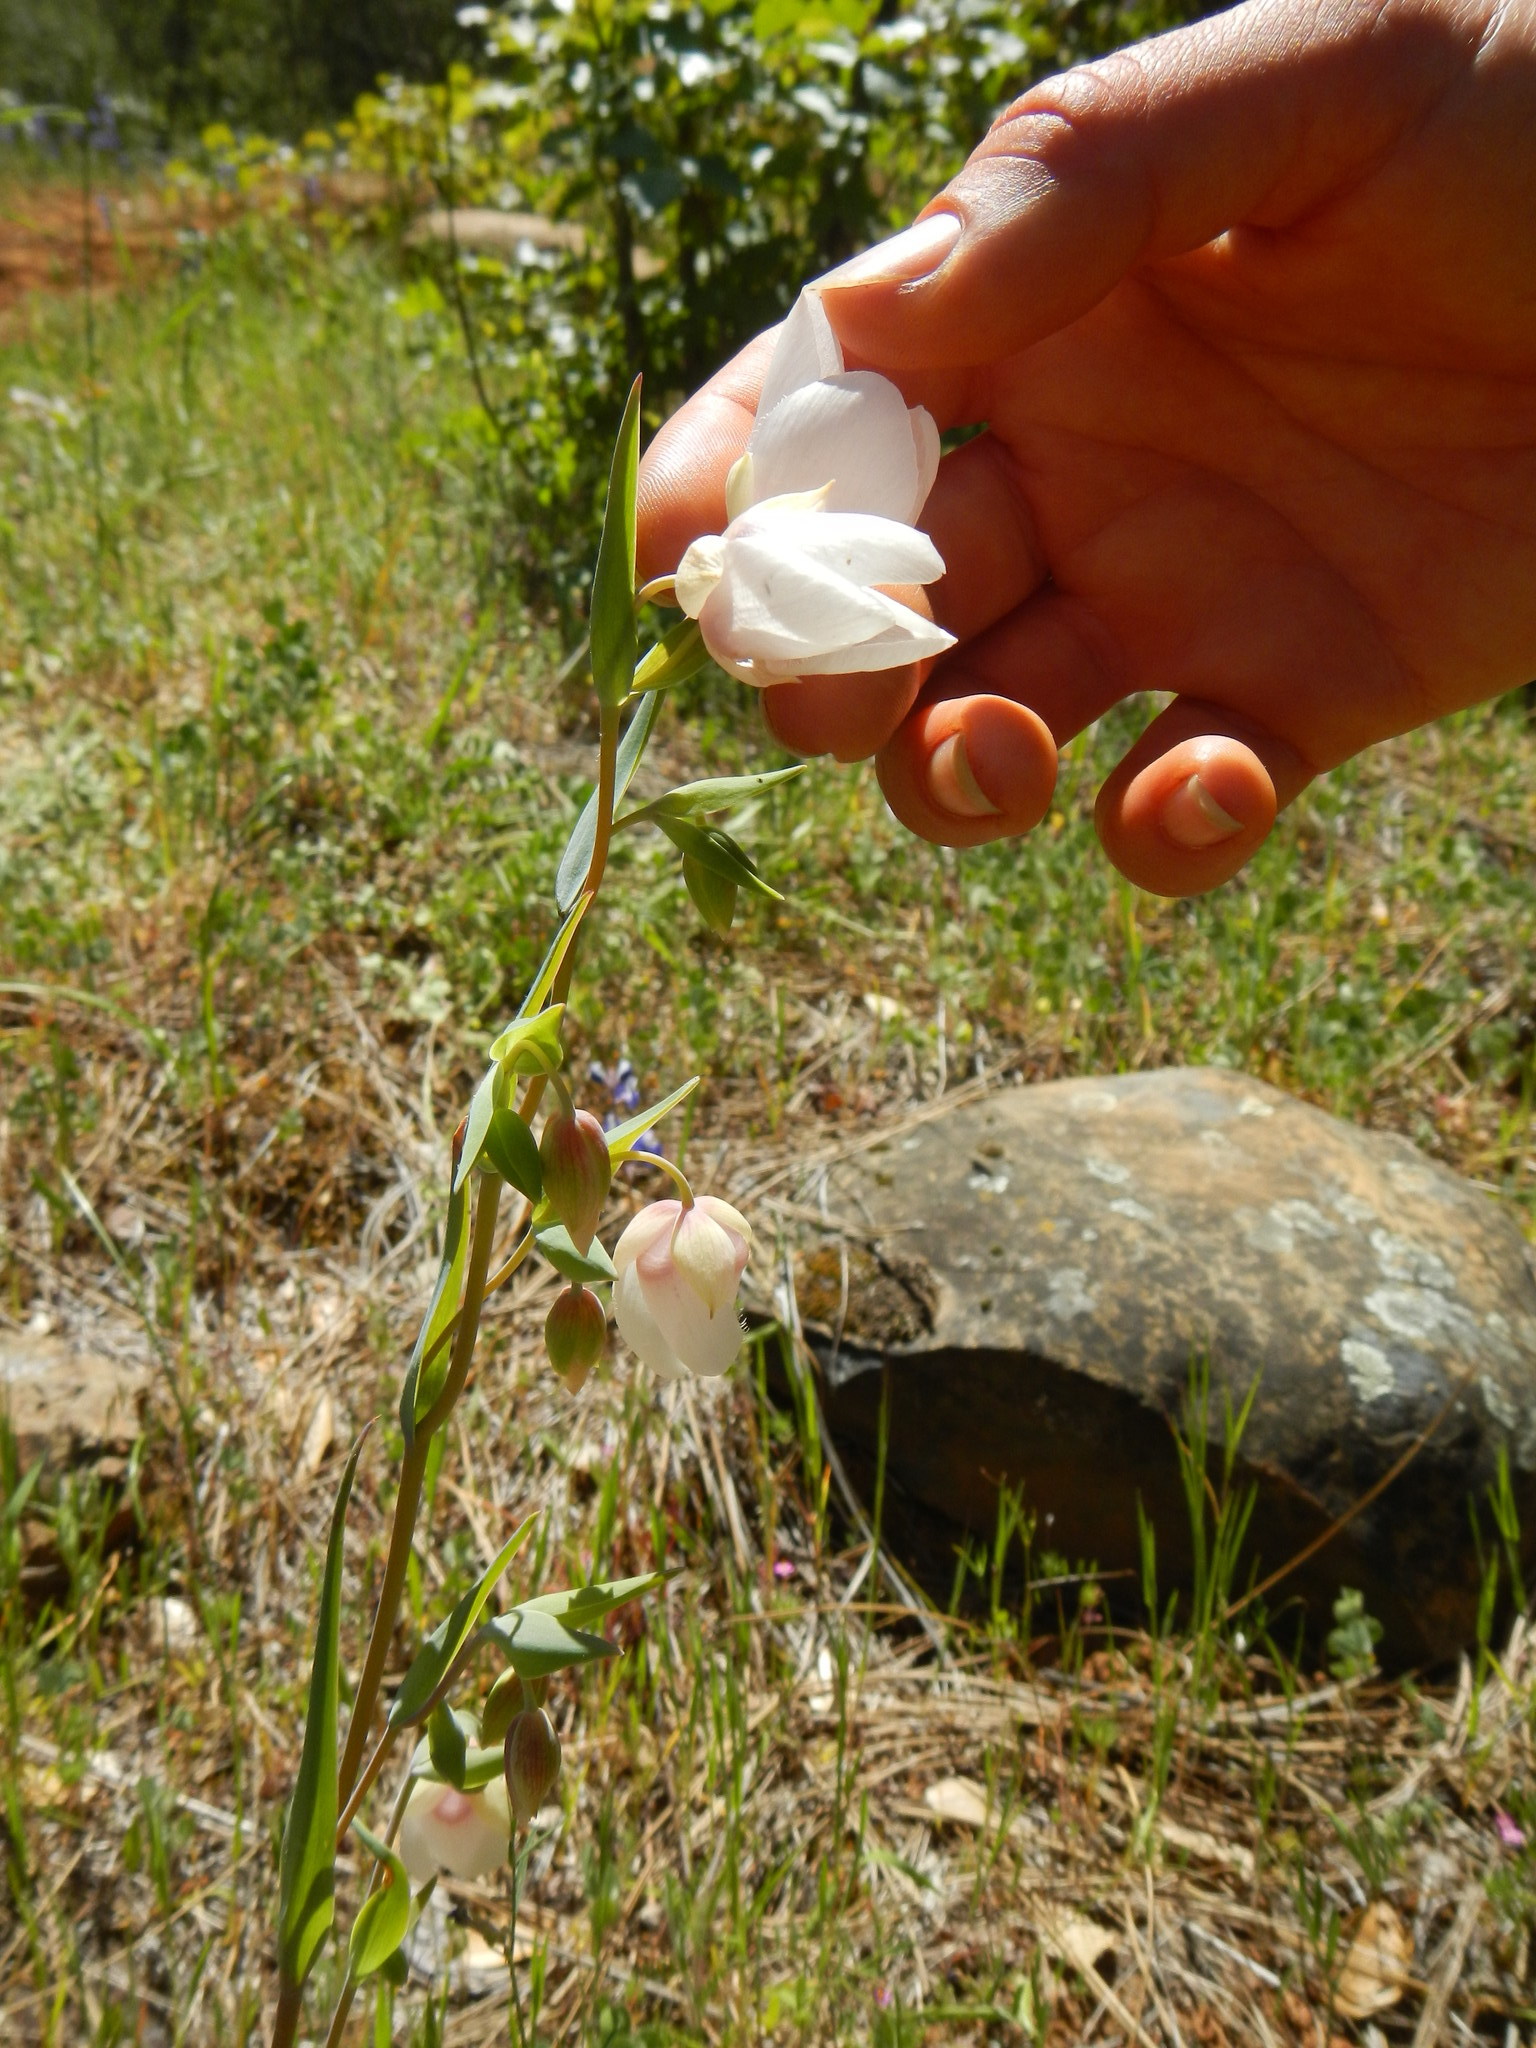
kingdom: Plantae
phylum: Tracheophyta
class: Liliopsida
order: Liliales
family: Liliaceae
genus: Calochortus
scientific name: Calochortus albus
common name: Fairy-lantern
